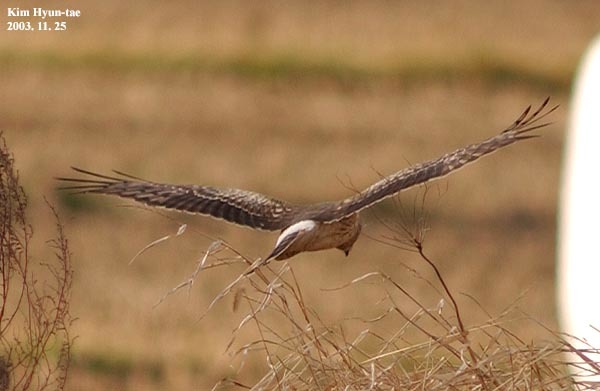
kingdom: Animalia
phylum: Chordata
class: Aves
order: Accipitriformes
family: Accipitridae
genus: Circus
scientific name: Circus cyaneus
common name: Hen harrier
